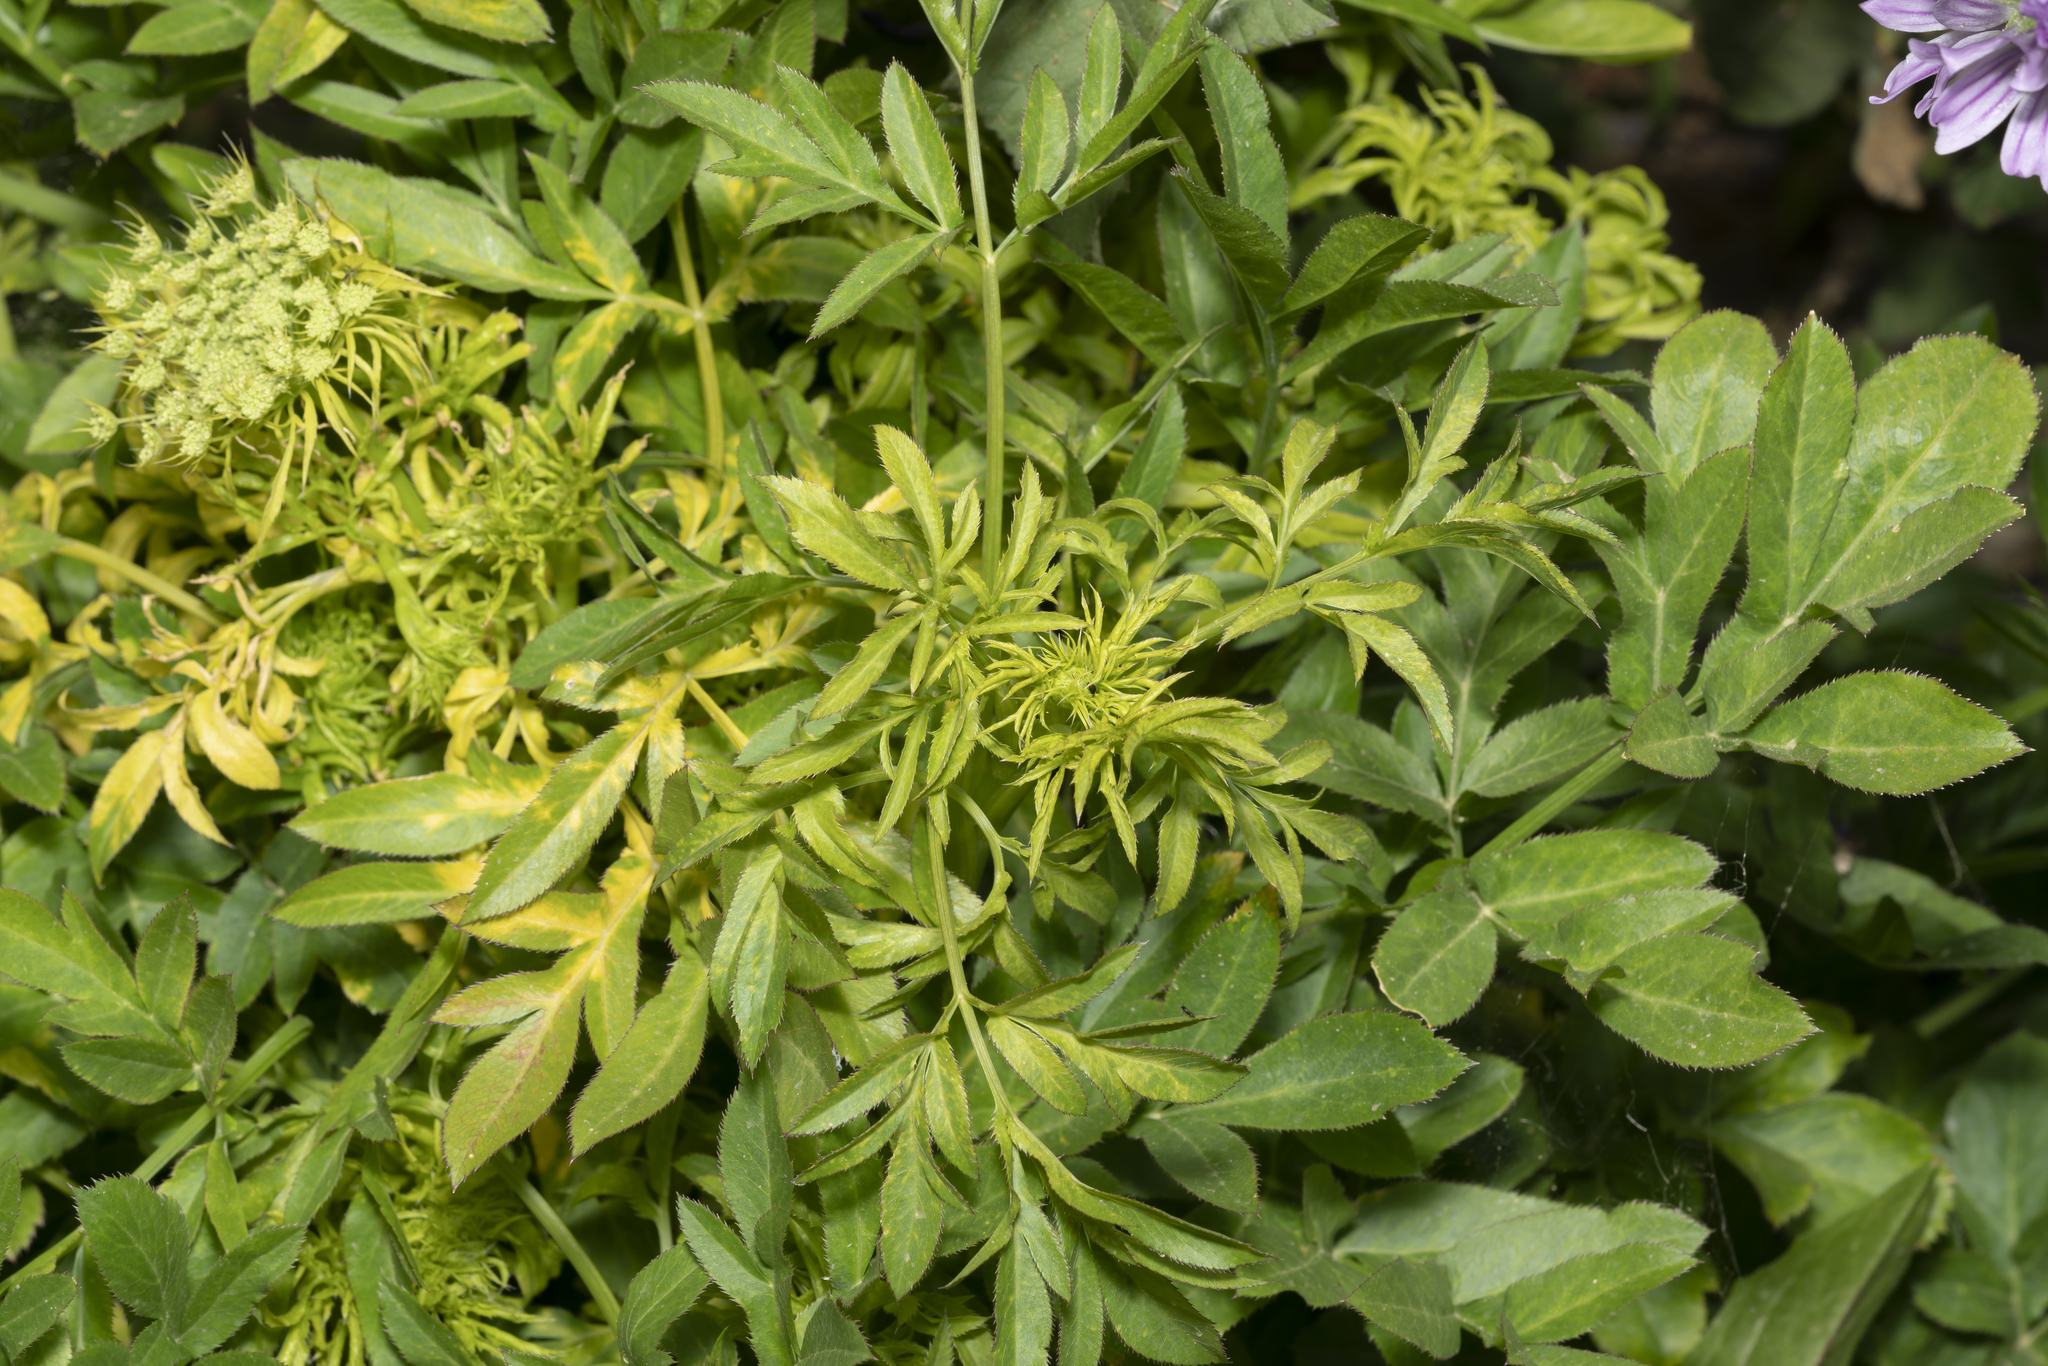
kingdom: Plantae
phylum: Tracheophyta
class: Magnoliopsida
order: Apiales
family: Apiaceae
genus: Ammi
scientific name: Ammi majus
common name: Bullwort
